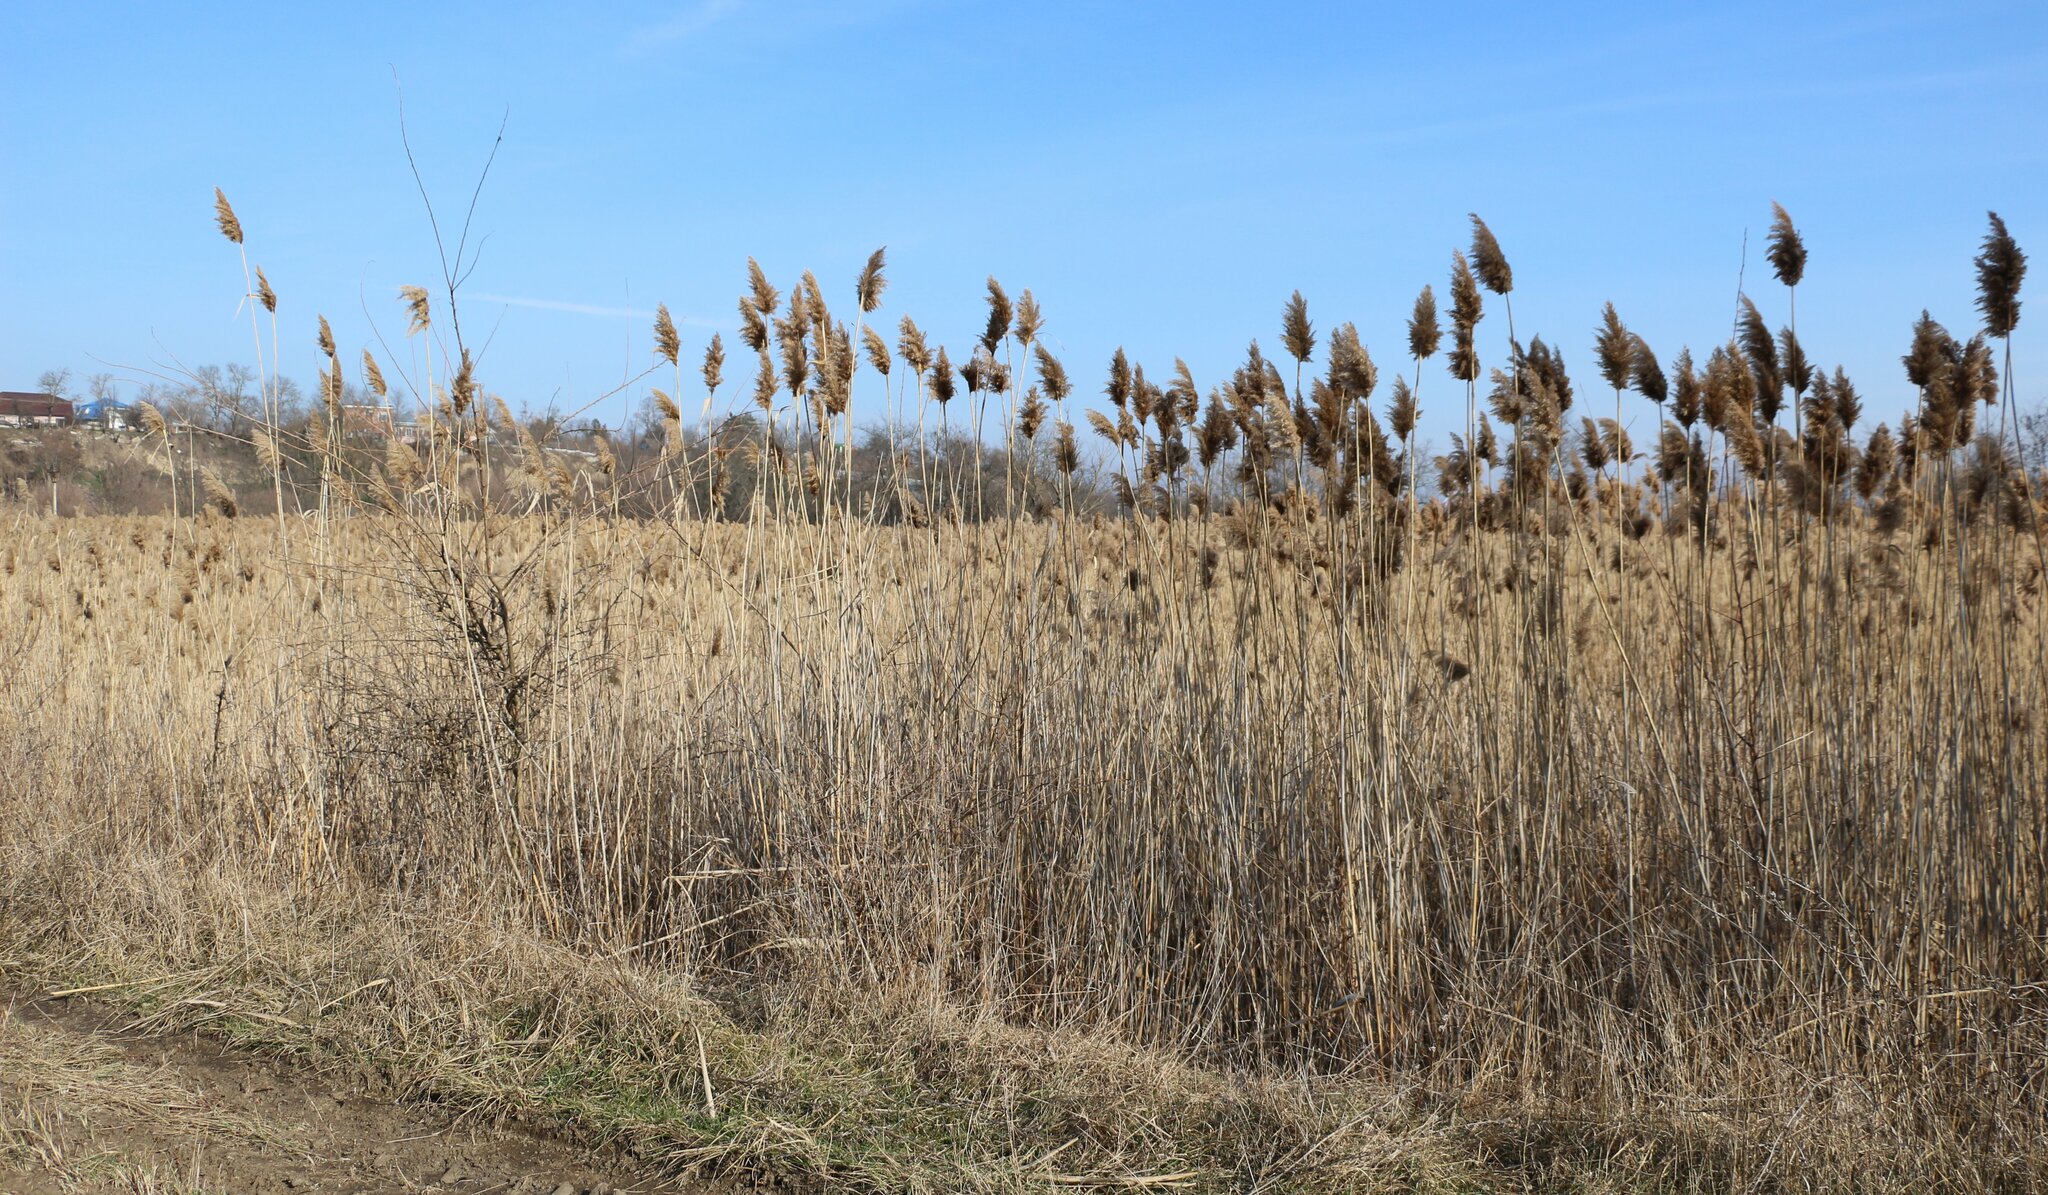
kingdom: Plantae
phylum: Tracheophyta
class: Liliopsida
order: Poales
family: Poaceae
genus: Phragmites
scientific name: Phragmites australis
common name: Common reed
